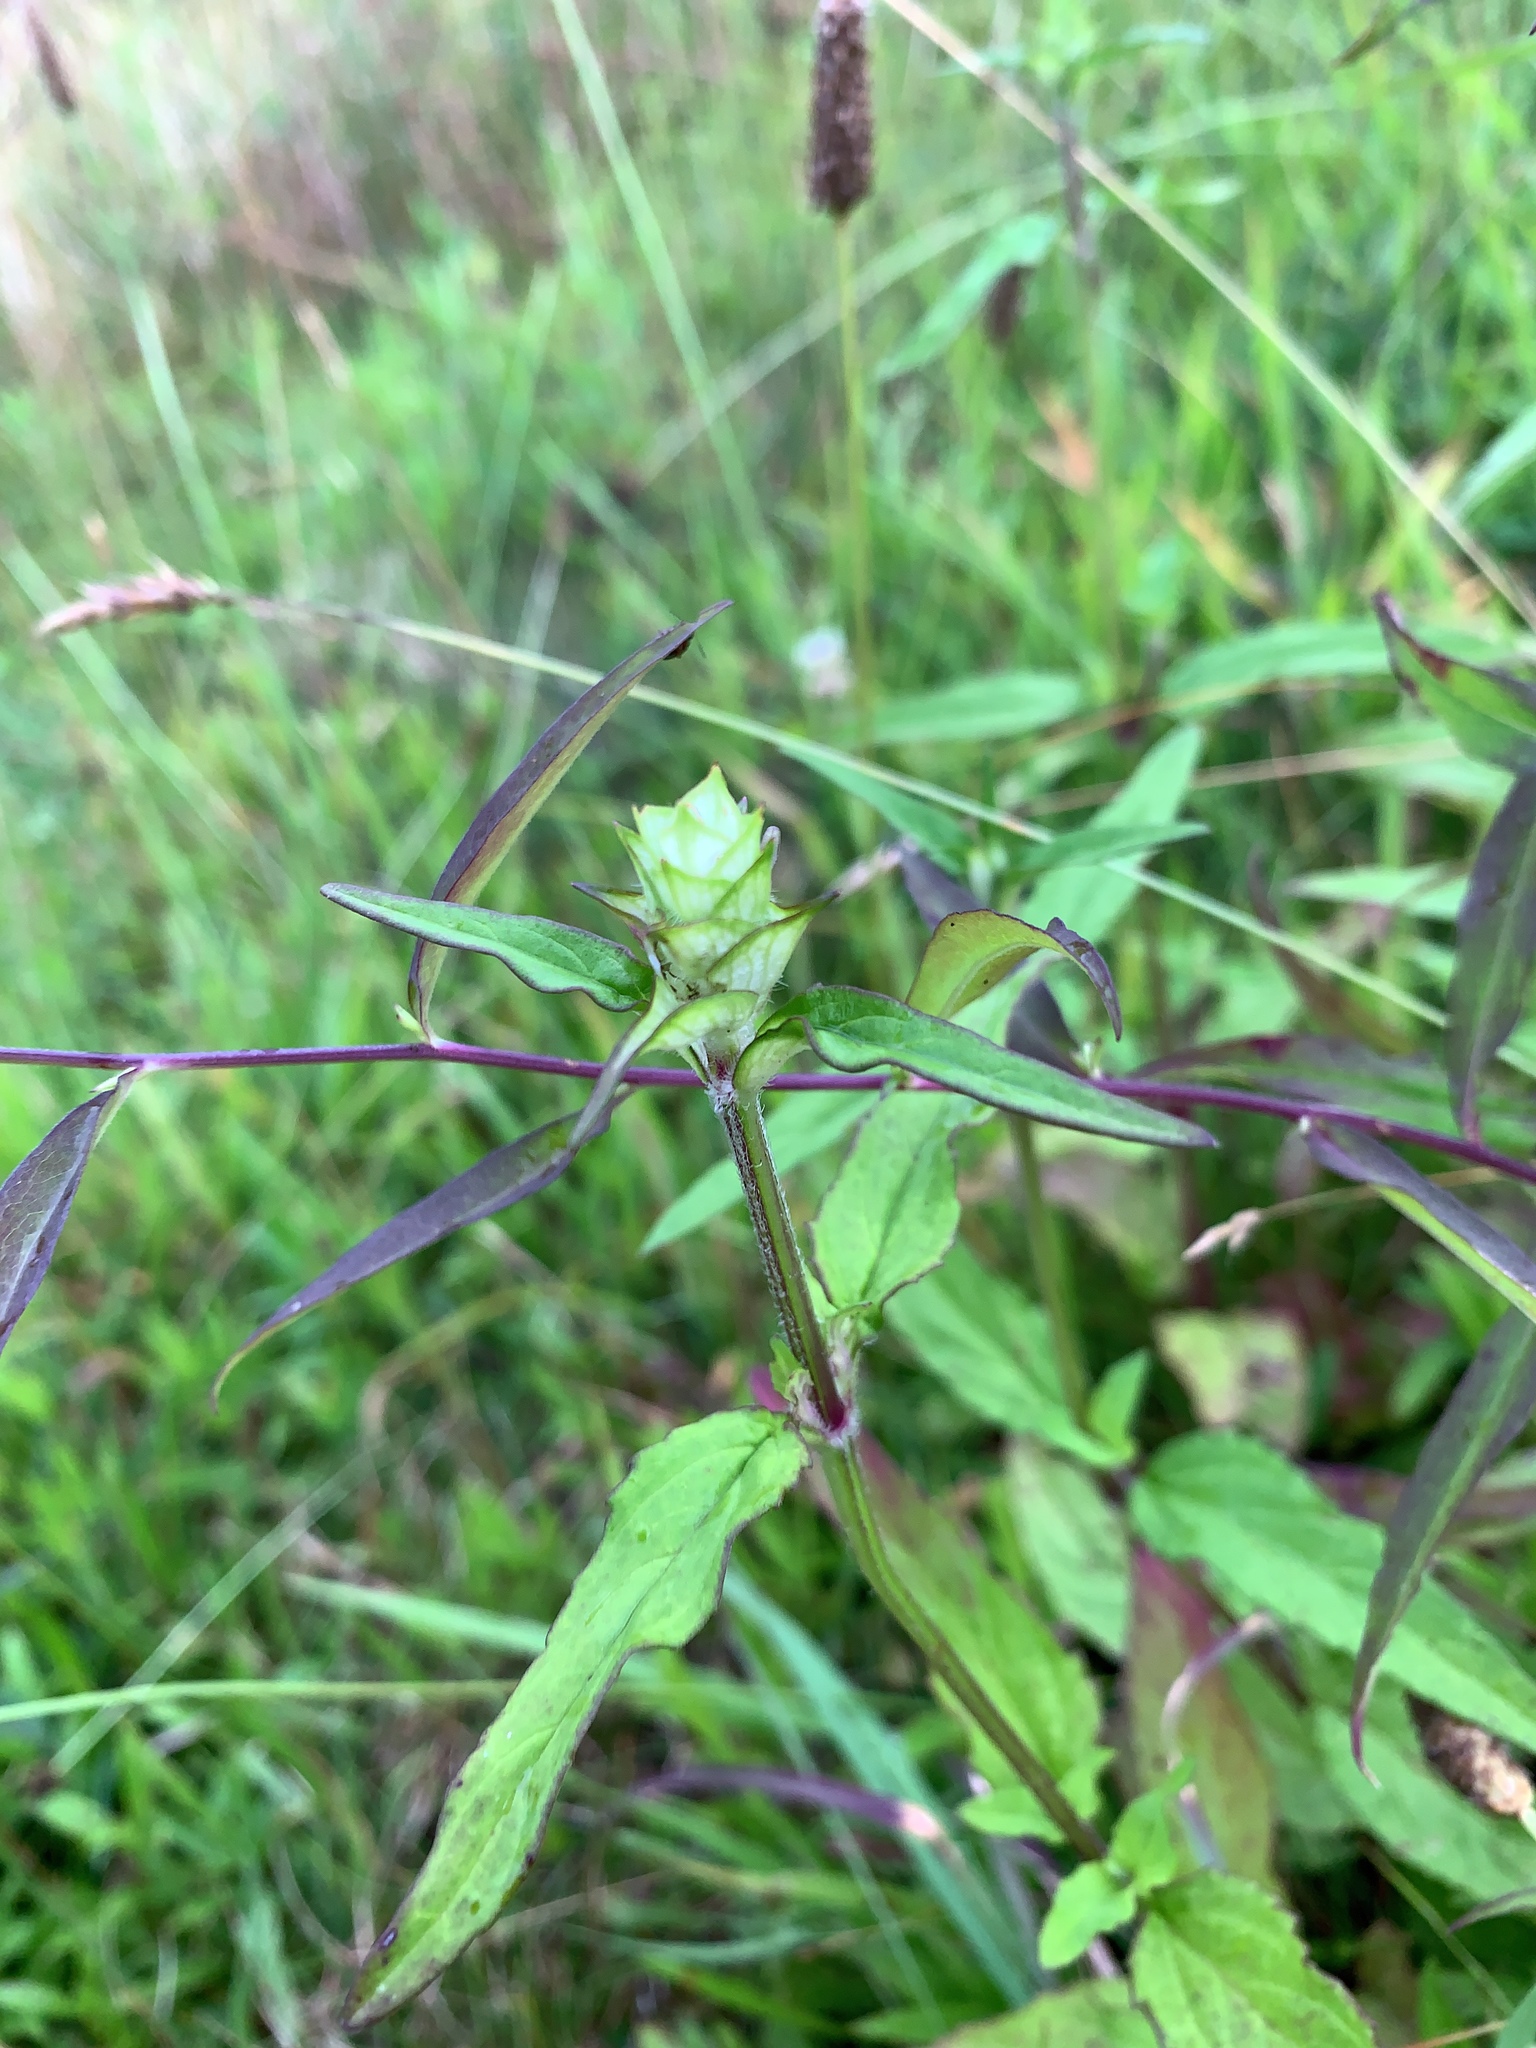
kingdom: Plantae
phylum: Tracheophyta
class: Magnoliopsida
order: Lamiales
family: Lamiaceae
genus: Prunella
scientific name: Prunella vulgaris
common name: Heal-all
